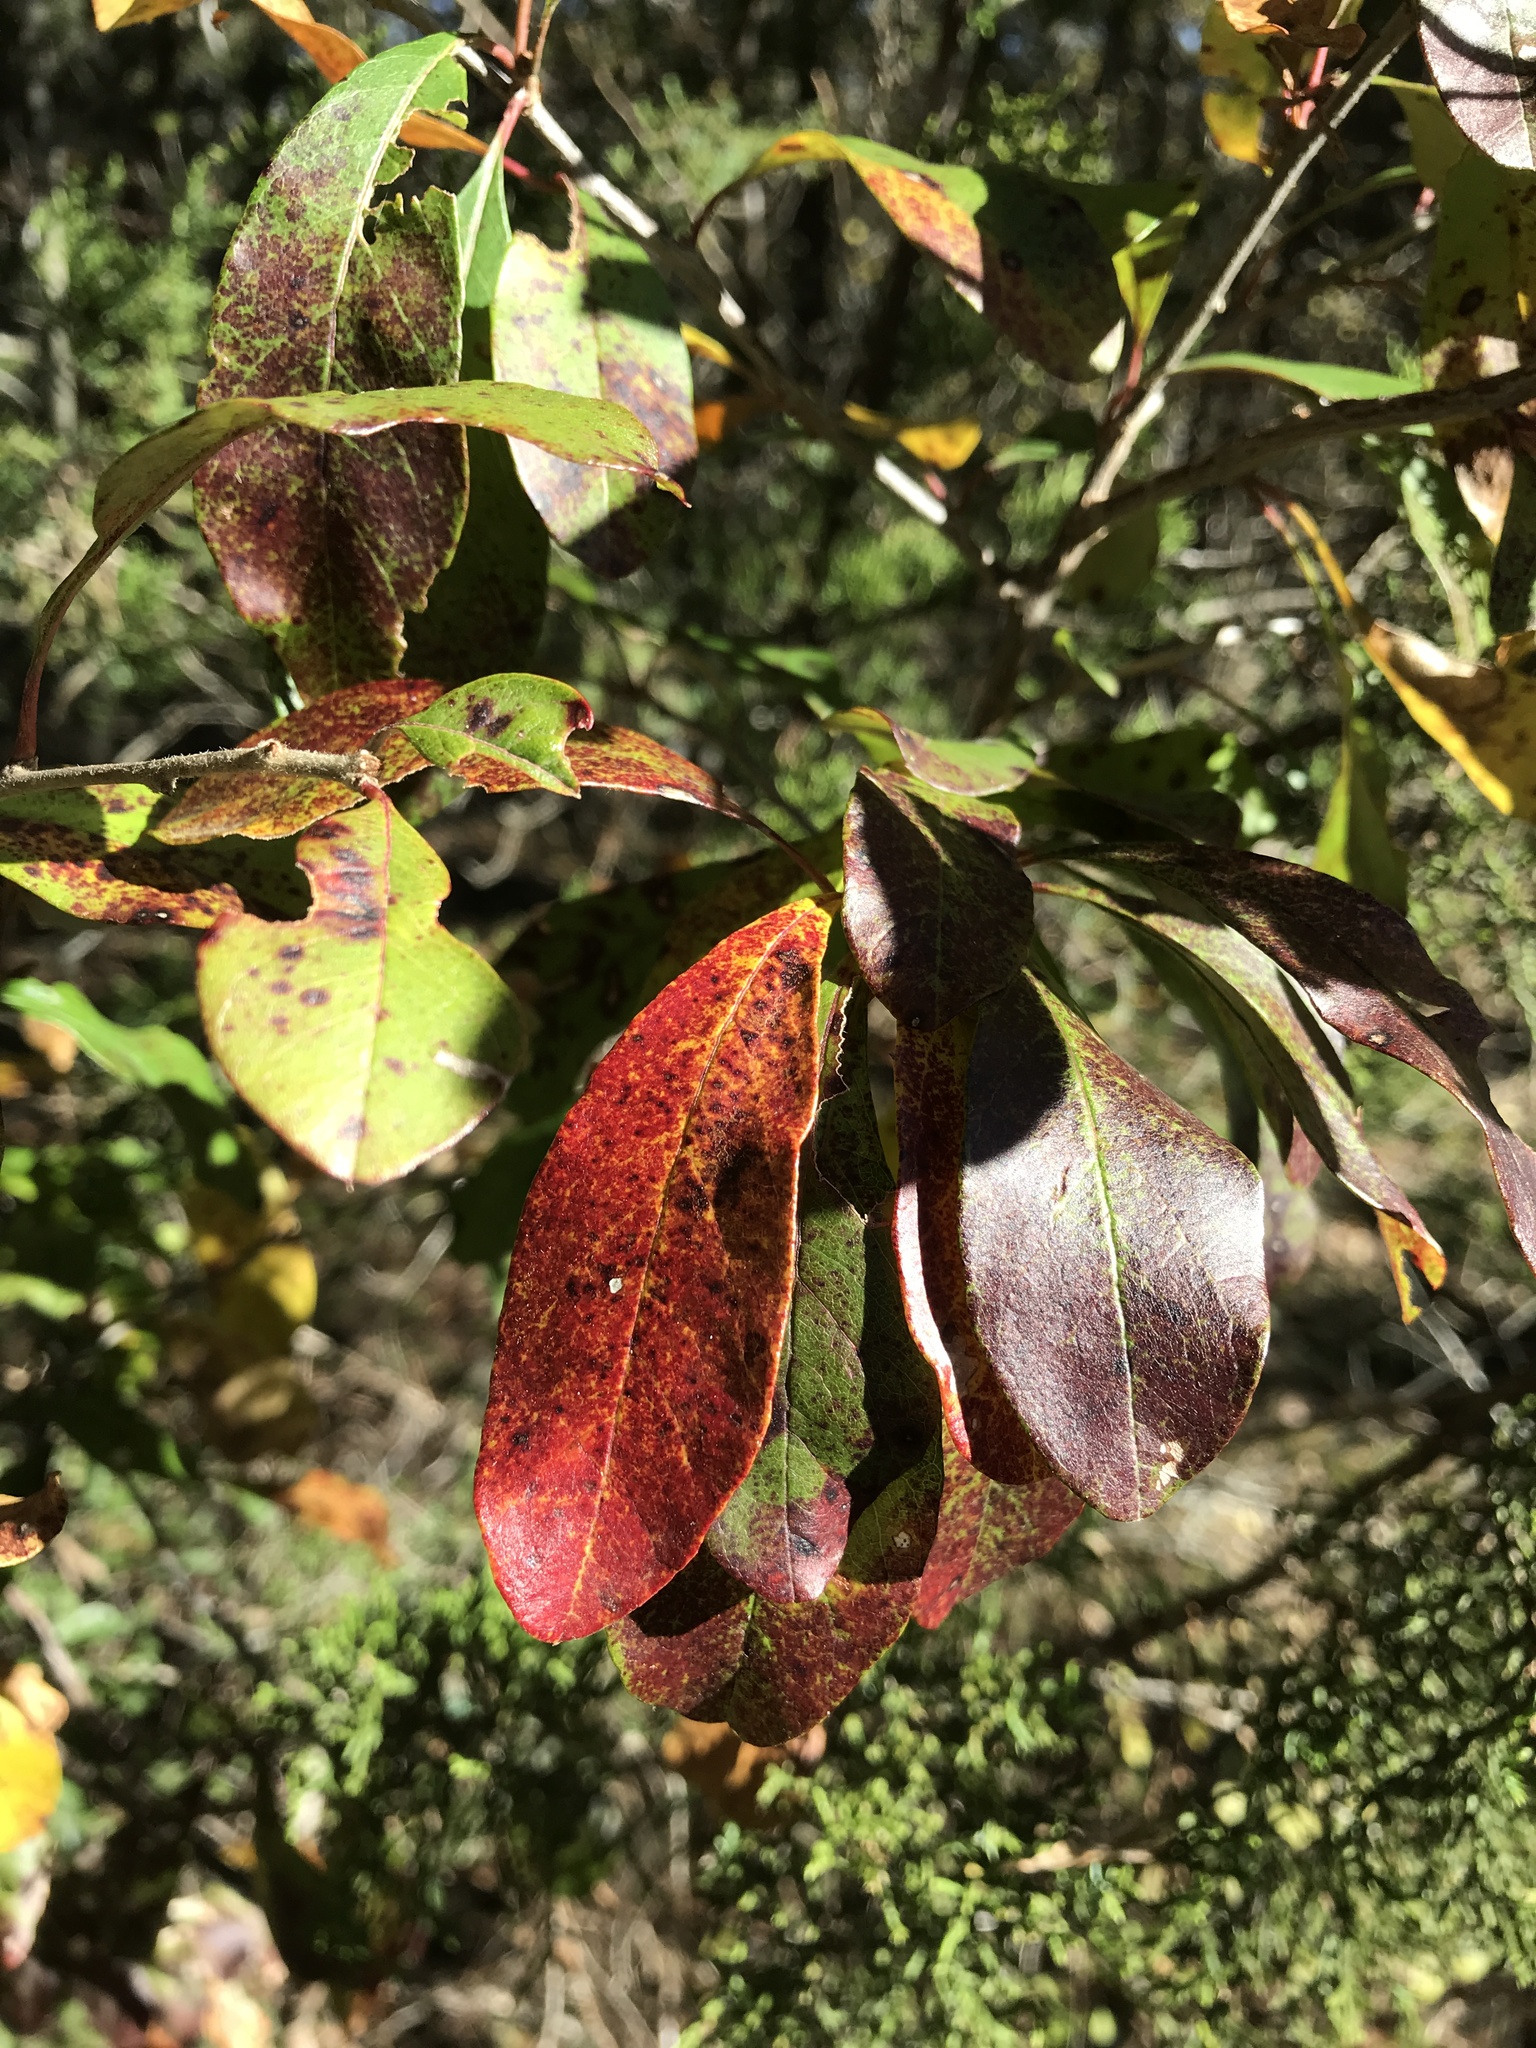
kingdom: Plantae
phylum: Tracheophyta
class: Magnoliopsida
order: Ericales
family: Sapotaceae
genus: Sideroxylon
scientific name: Sideroxylon lanuginosum
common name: Chittamwood
